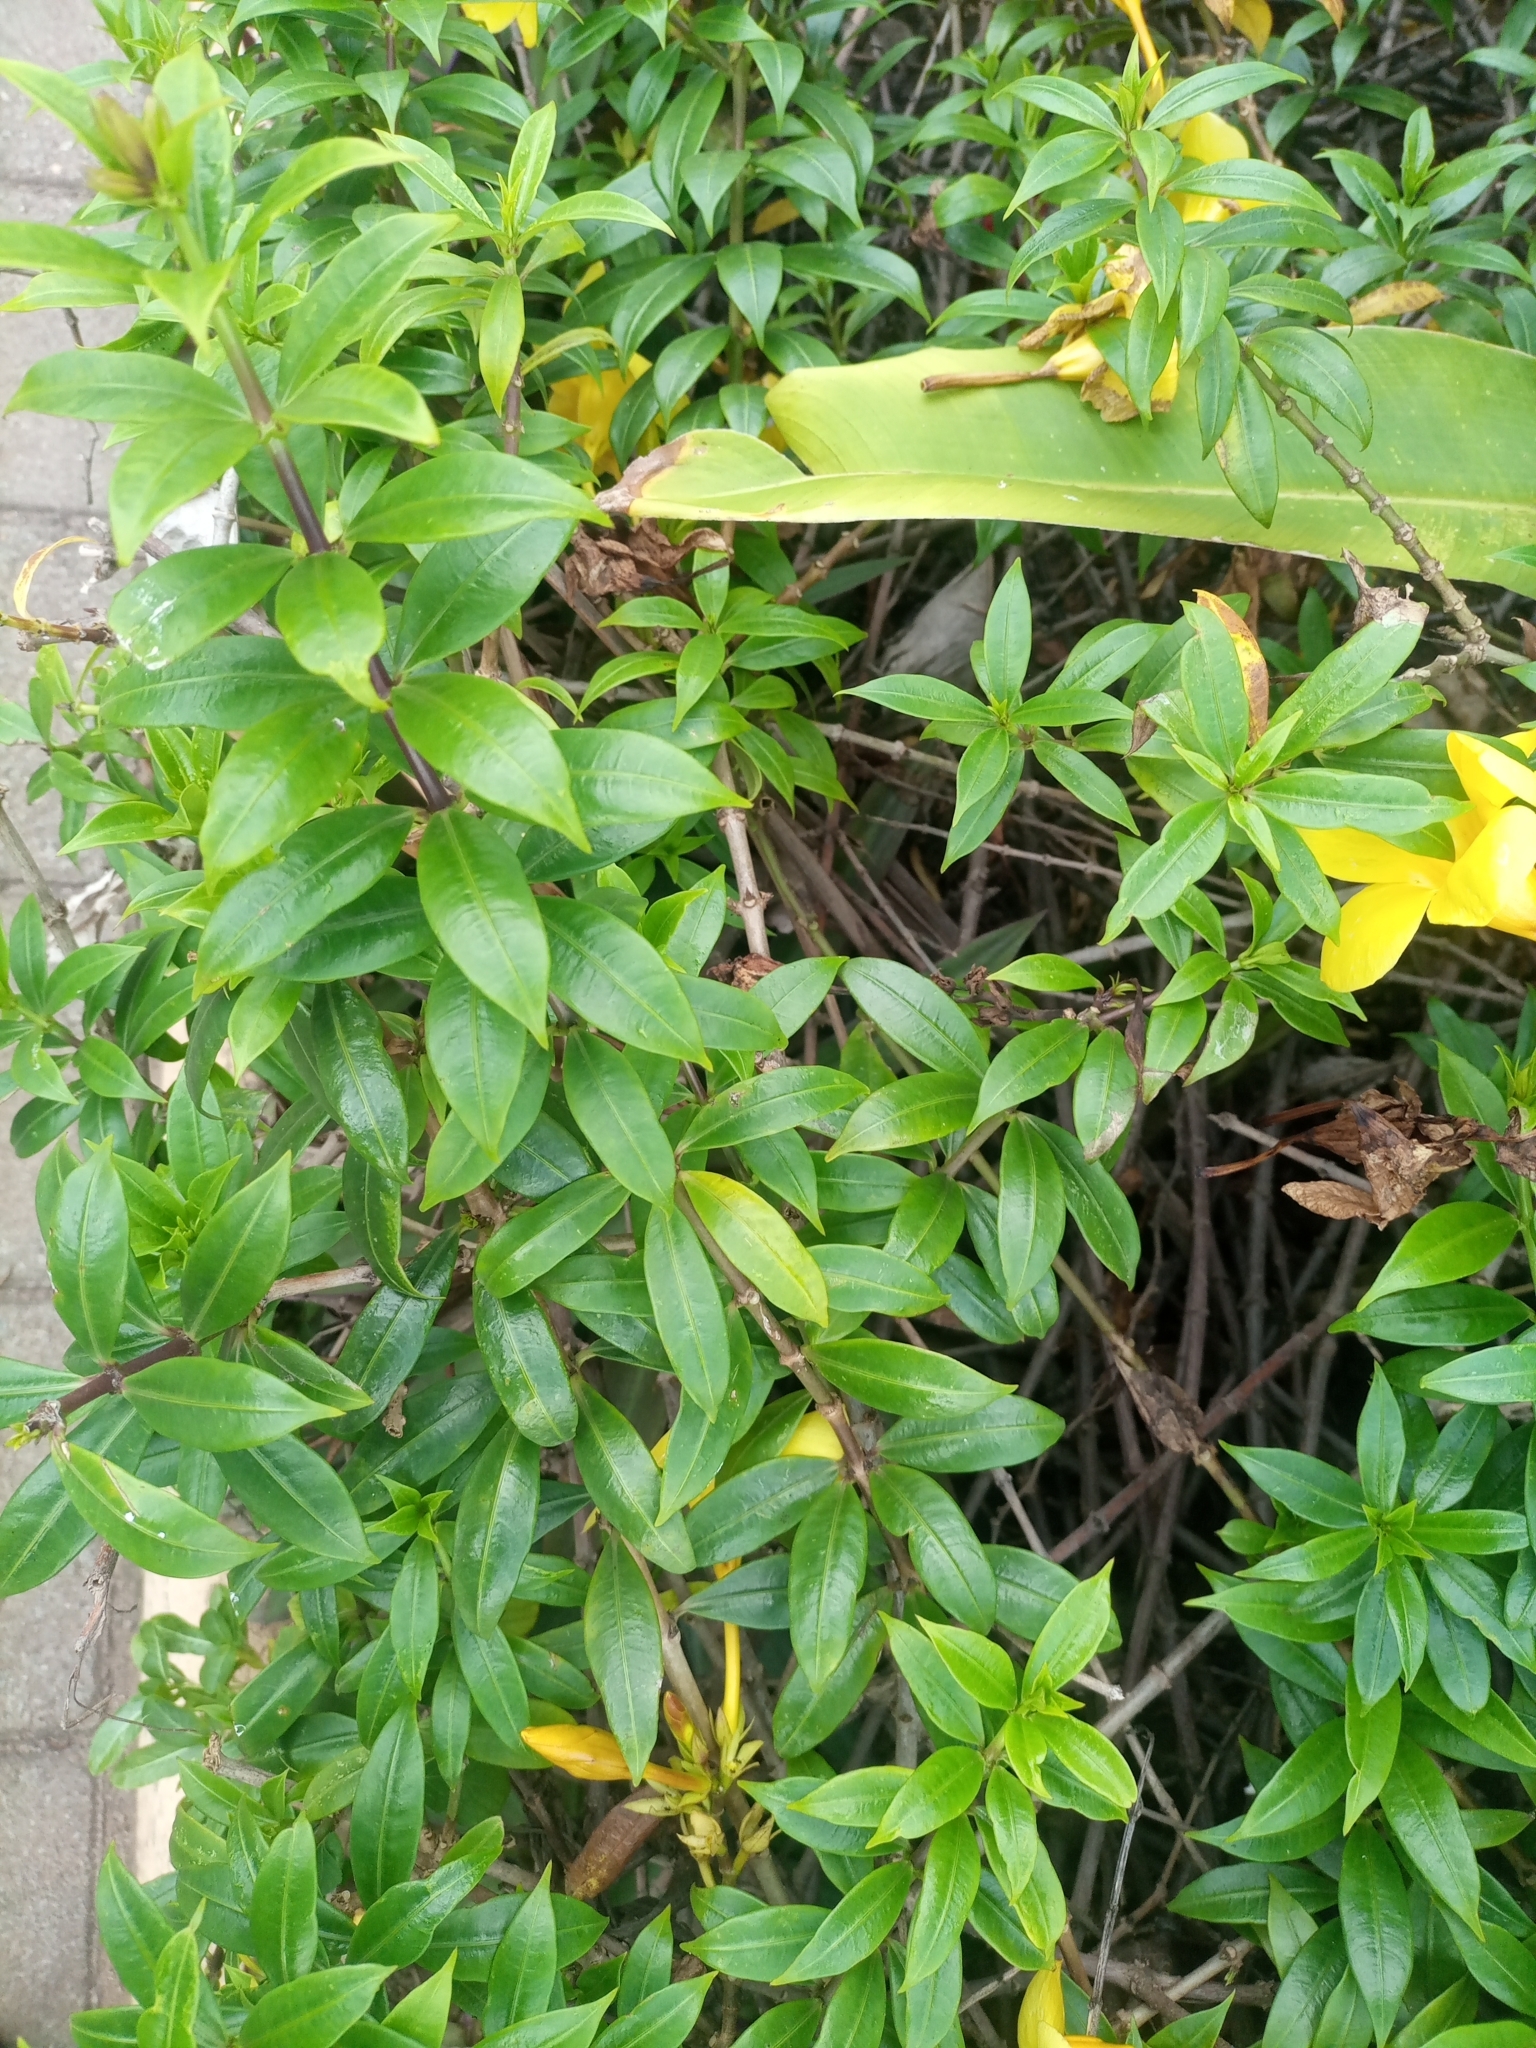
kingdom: Plantae
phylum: Tracheophyta
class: Magnoliopsida
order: Gentianales
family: Apocynaceae
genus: Allamanda
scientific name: Allamanda cathartica
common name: Golden trumpet
